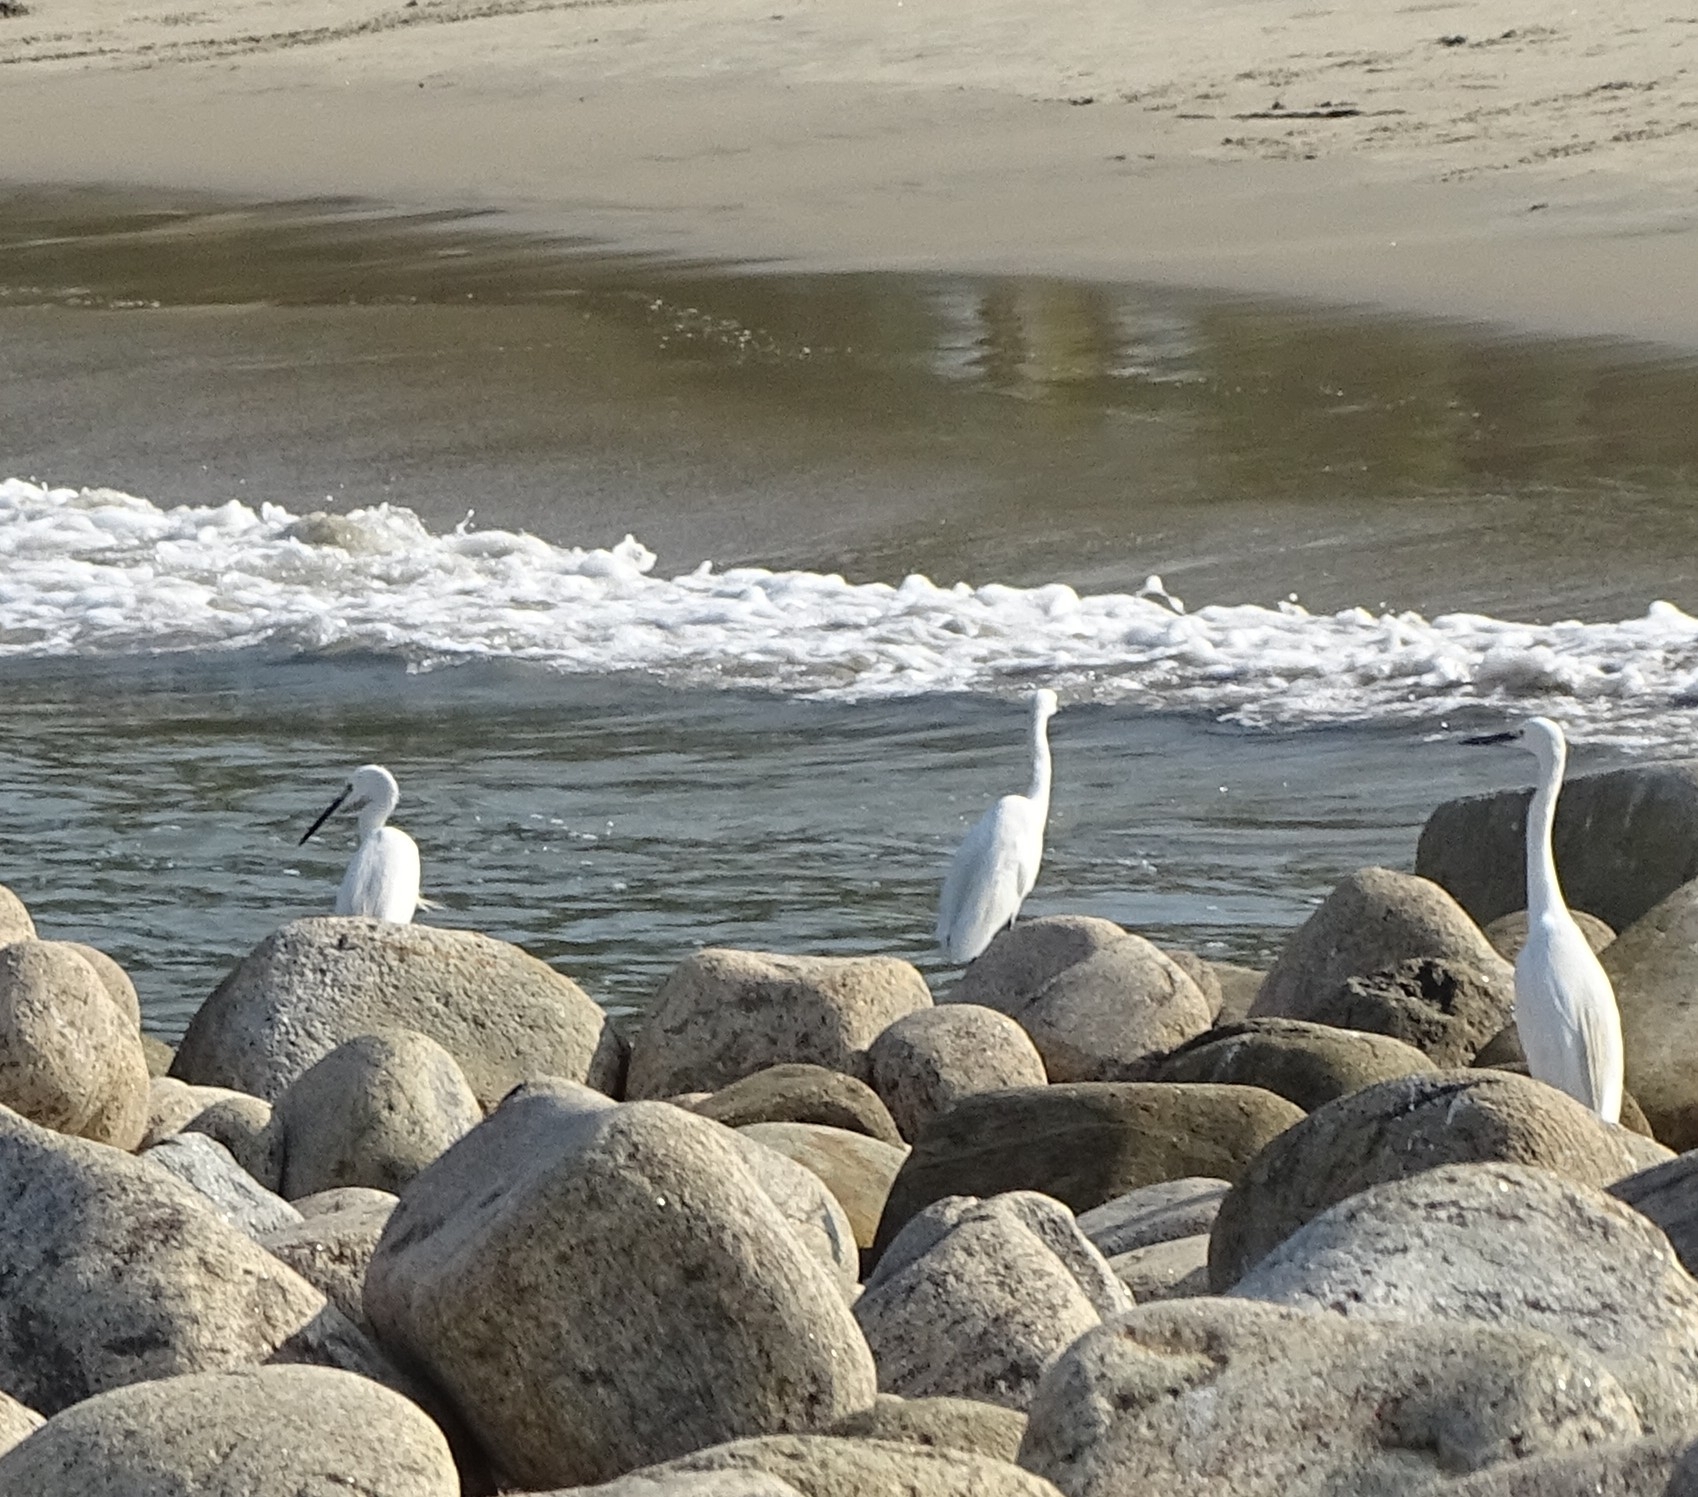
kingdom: Animalia
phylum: Chordata
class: Aves
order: Pelecaniformes
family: Ardeidae
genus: Egretta
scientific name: Egretta garzetta
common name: Little egret
